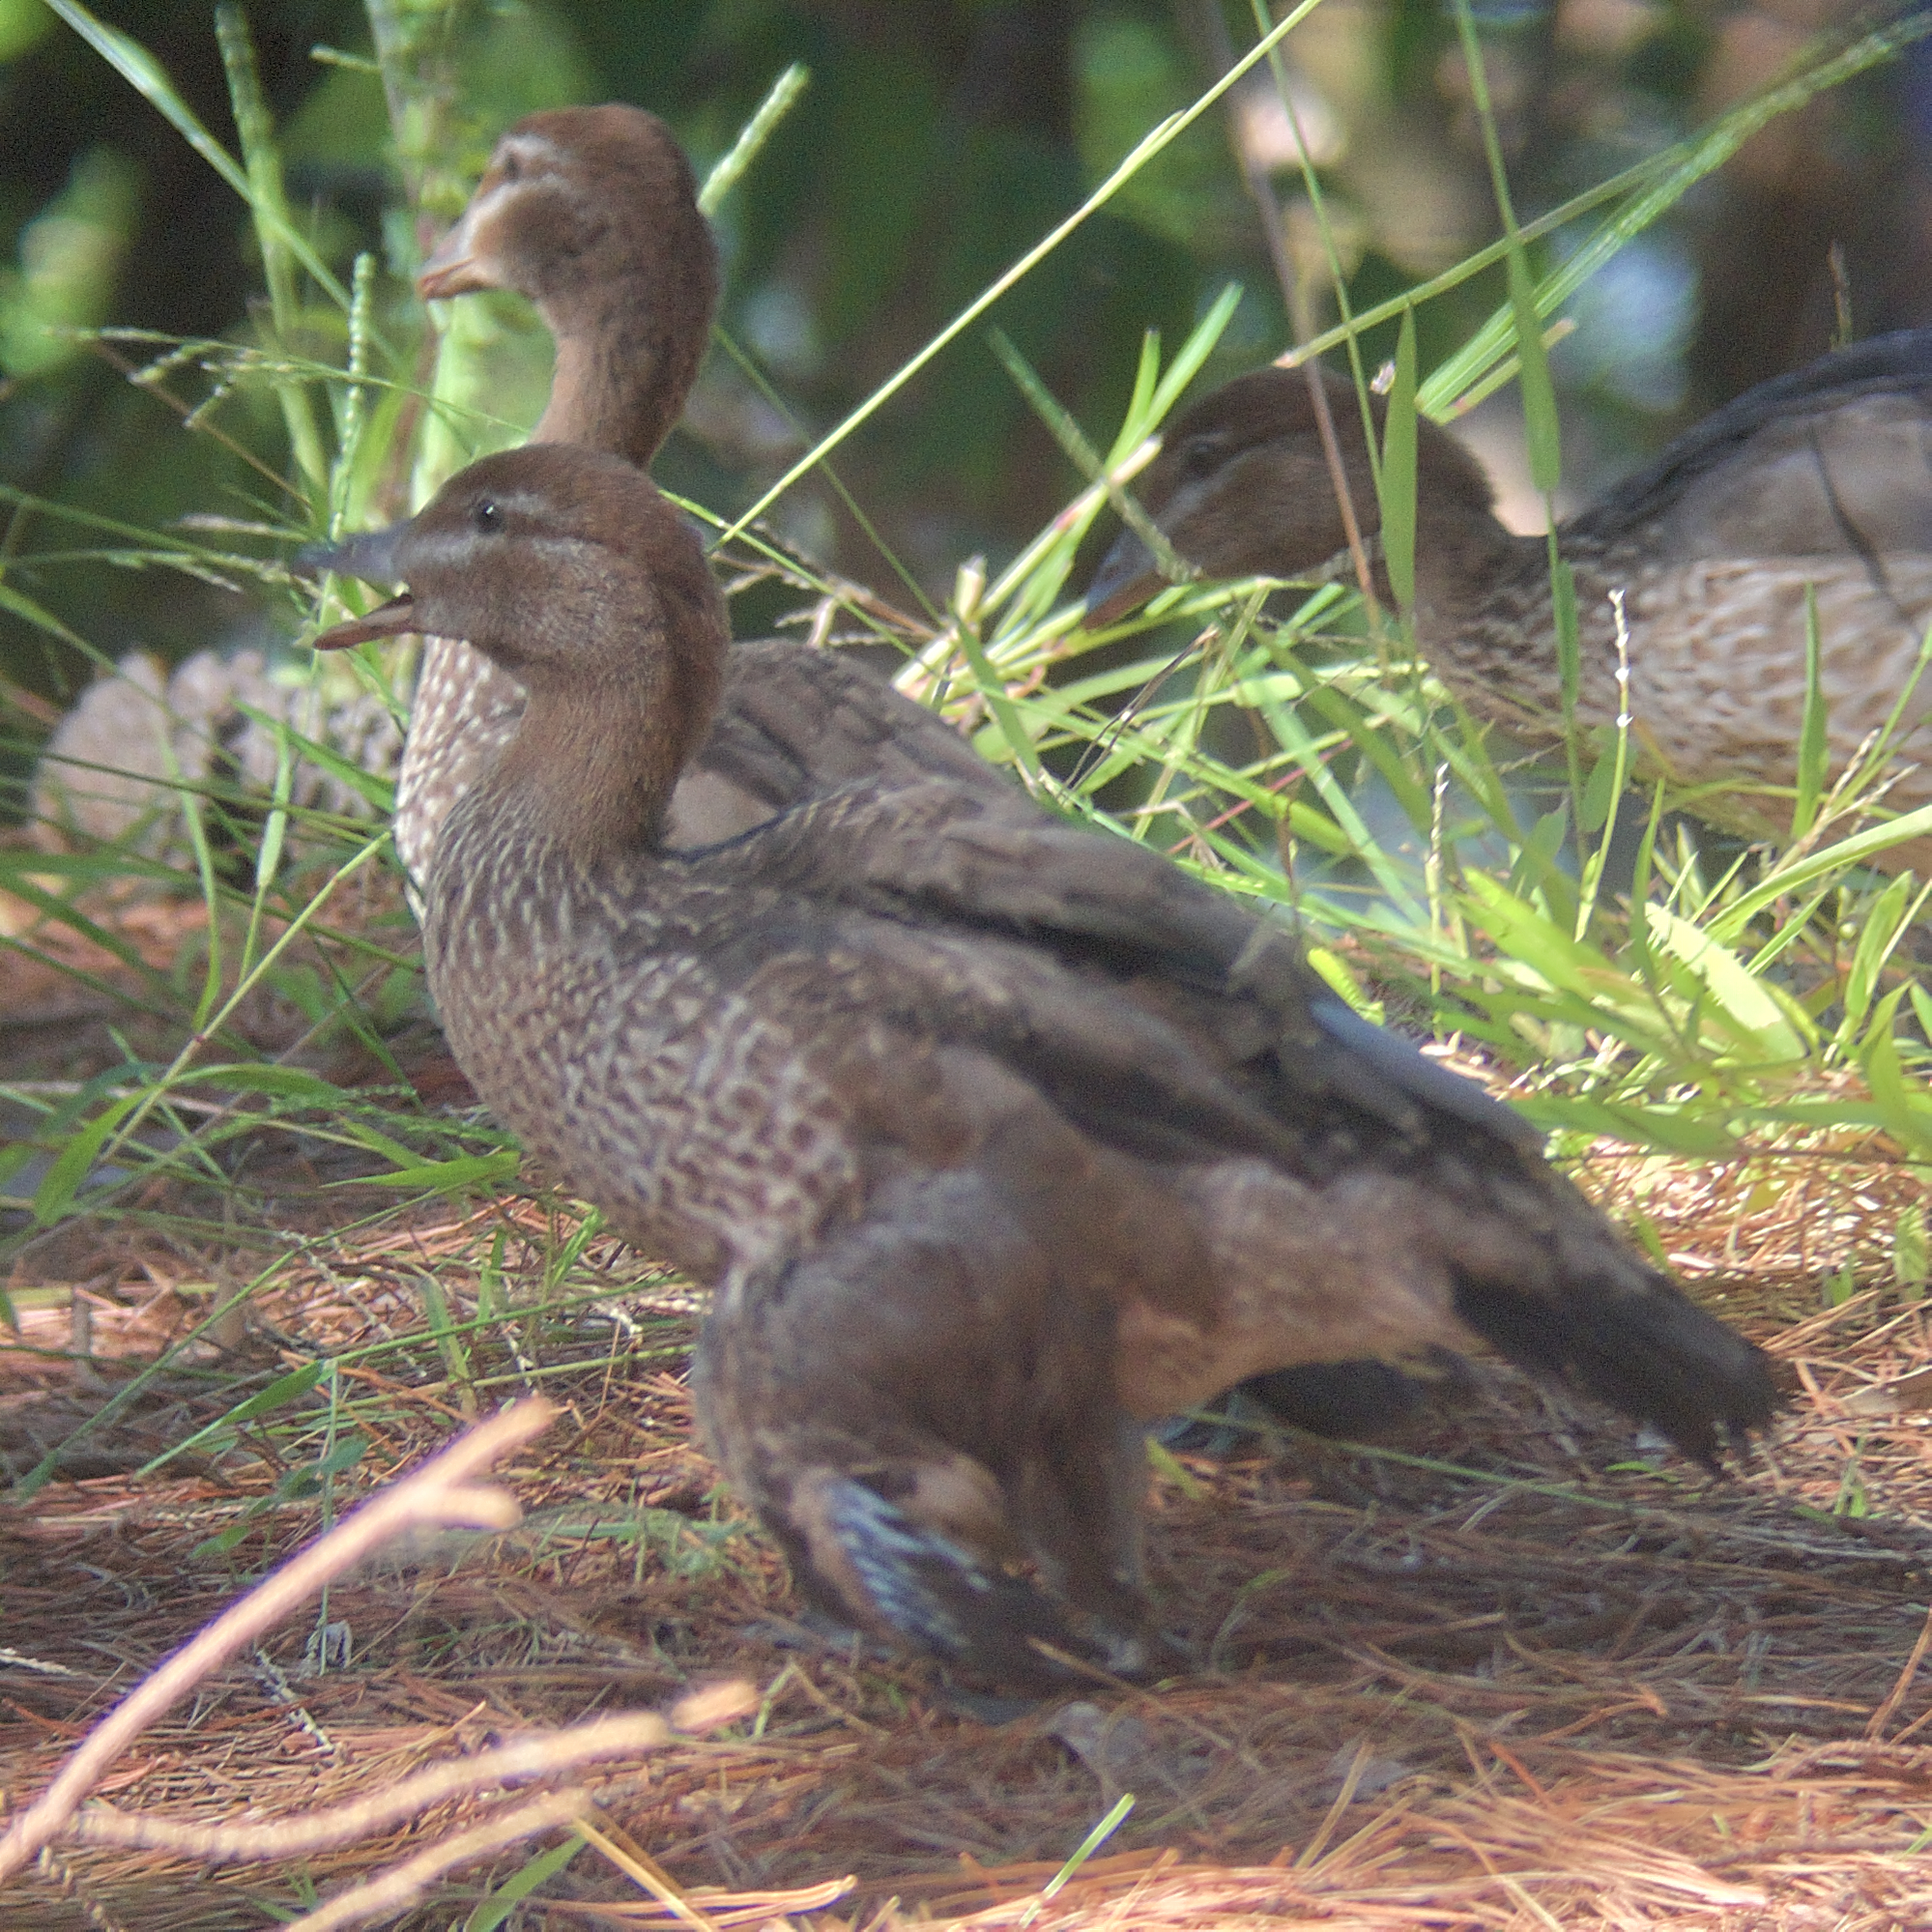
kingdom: Animalia
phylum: Chordata
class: Aves
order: Anseriformes
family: Anatidae
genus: Chenonetta
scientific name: Chenonetta jubata
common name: Maned duck
